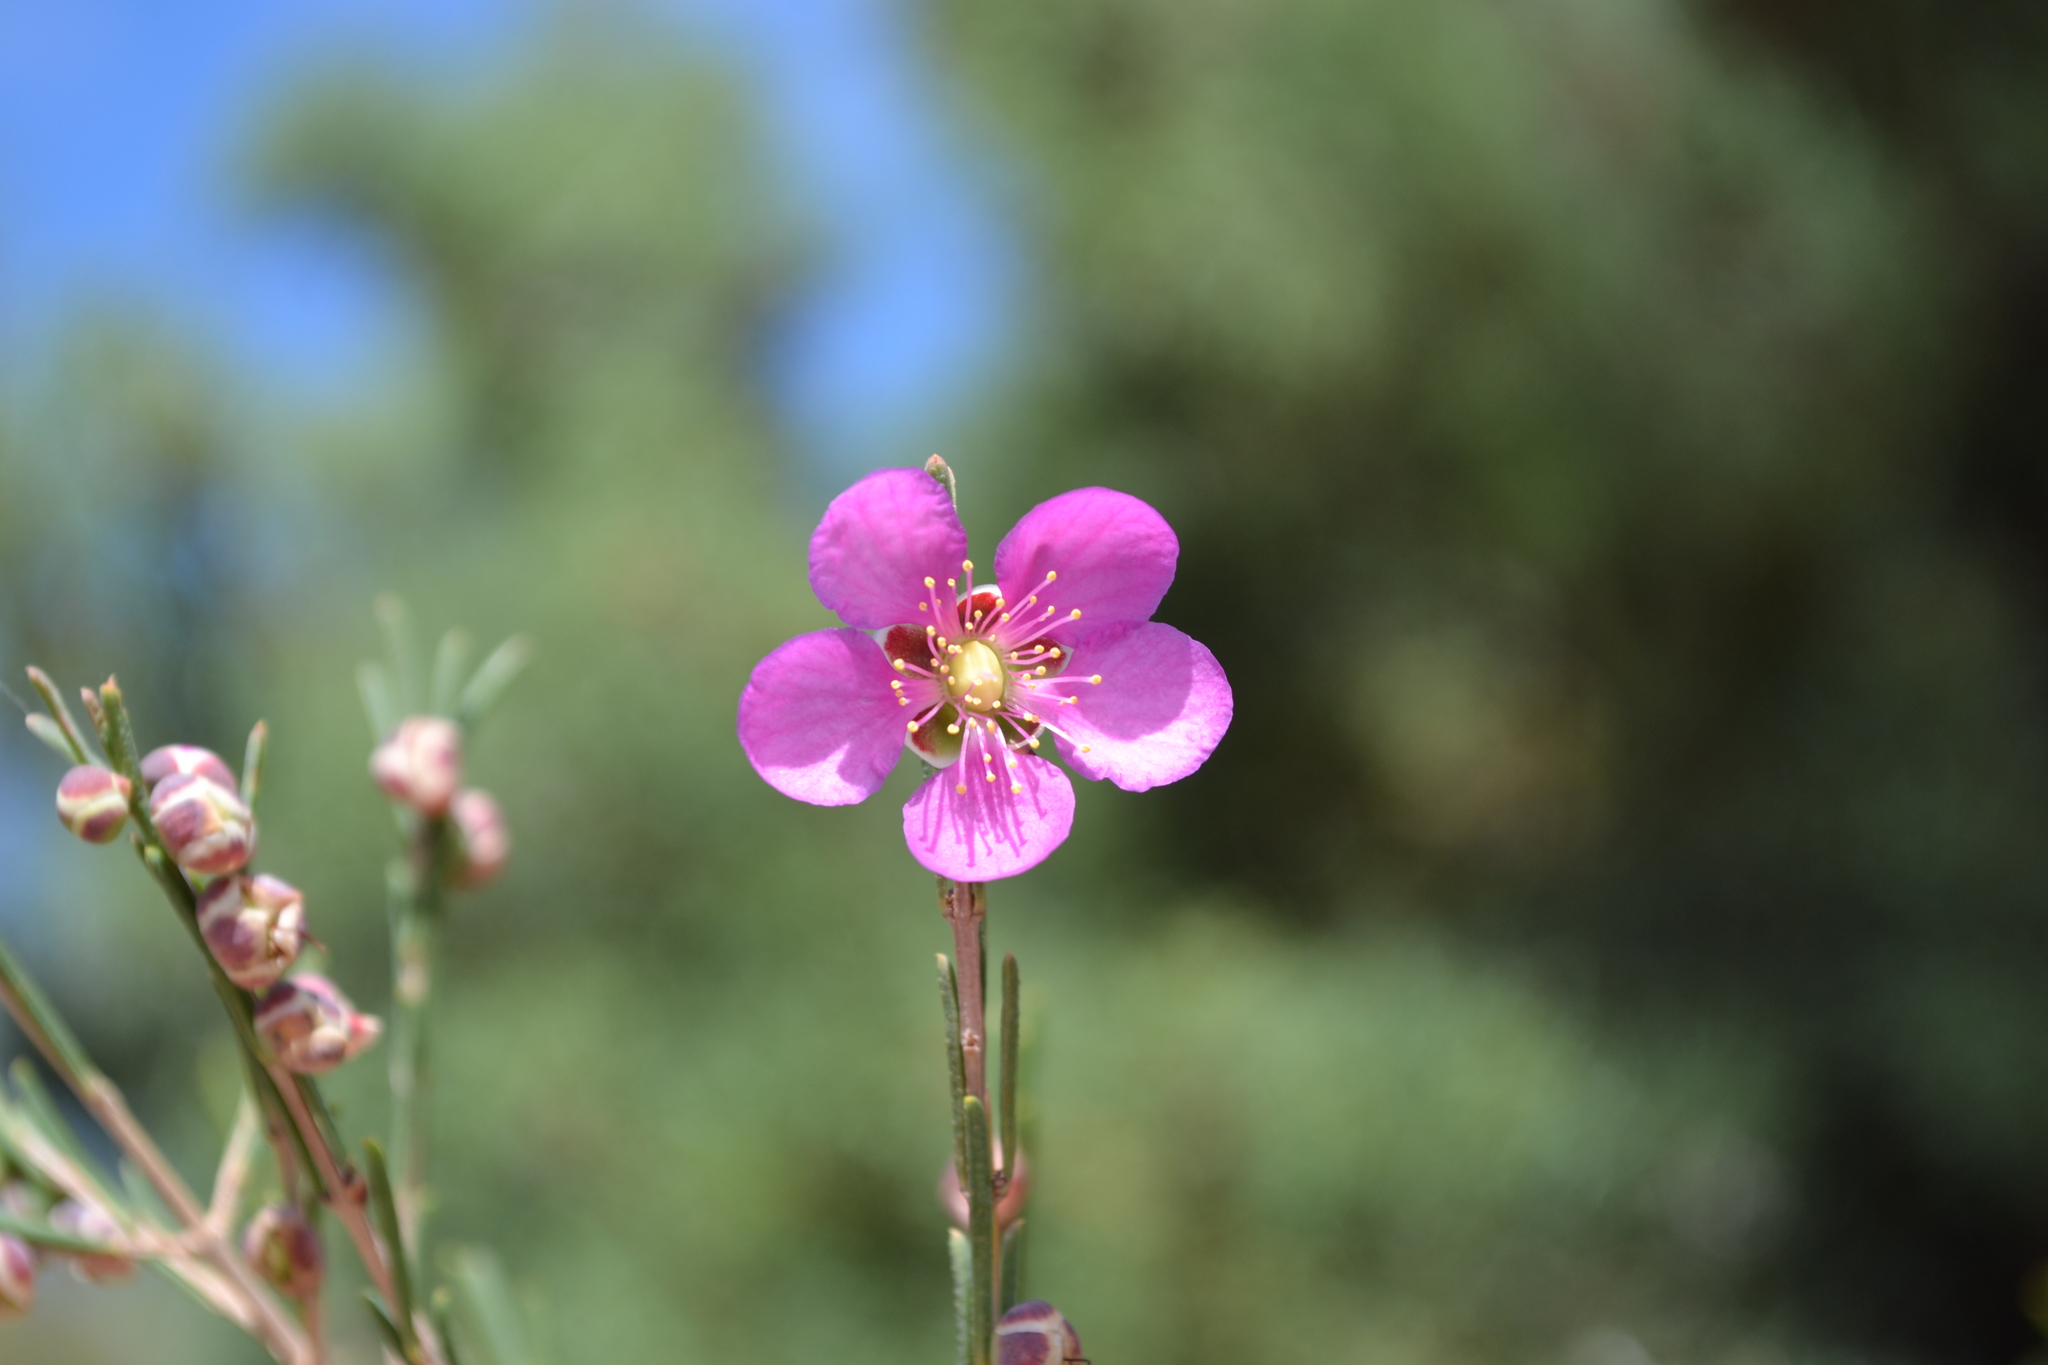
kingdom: Plantae
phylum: Tracheophyta
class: Magnoliopsida
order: Myrtales
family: Myrtaceae
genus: Hypocalymma
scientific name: Hypocalymma puniceum
